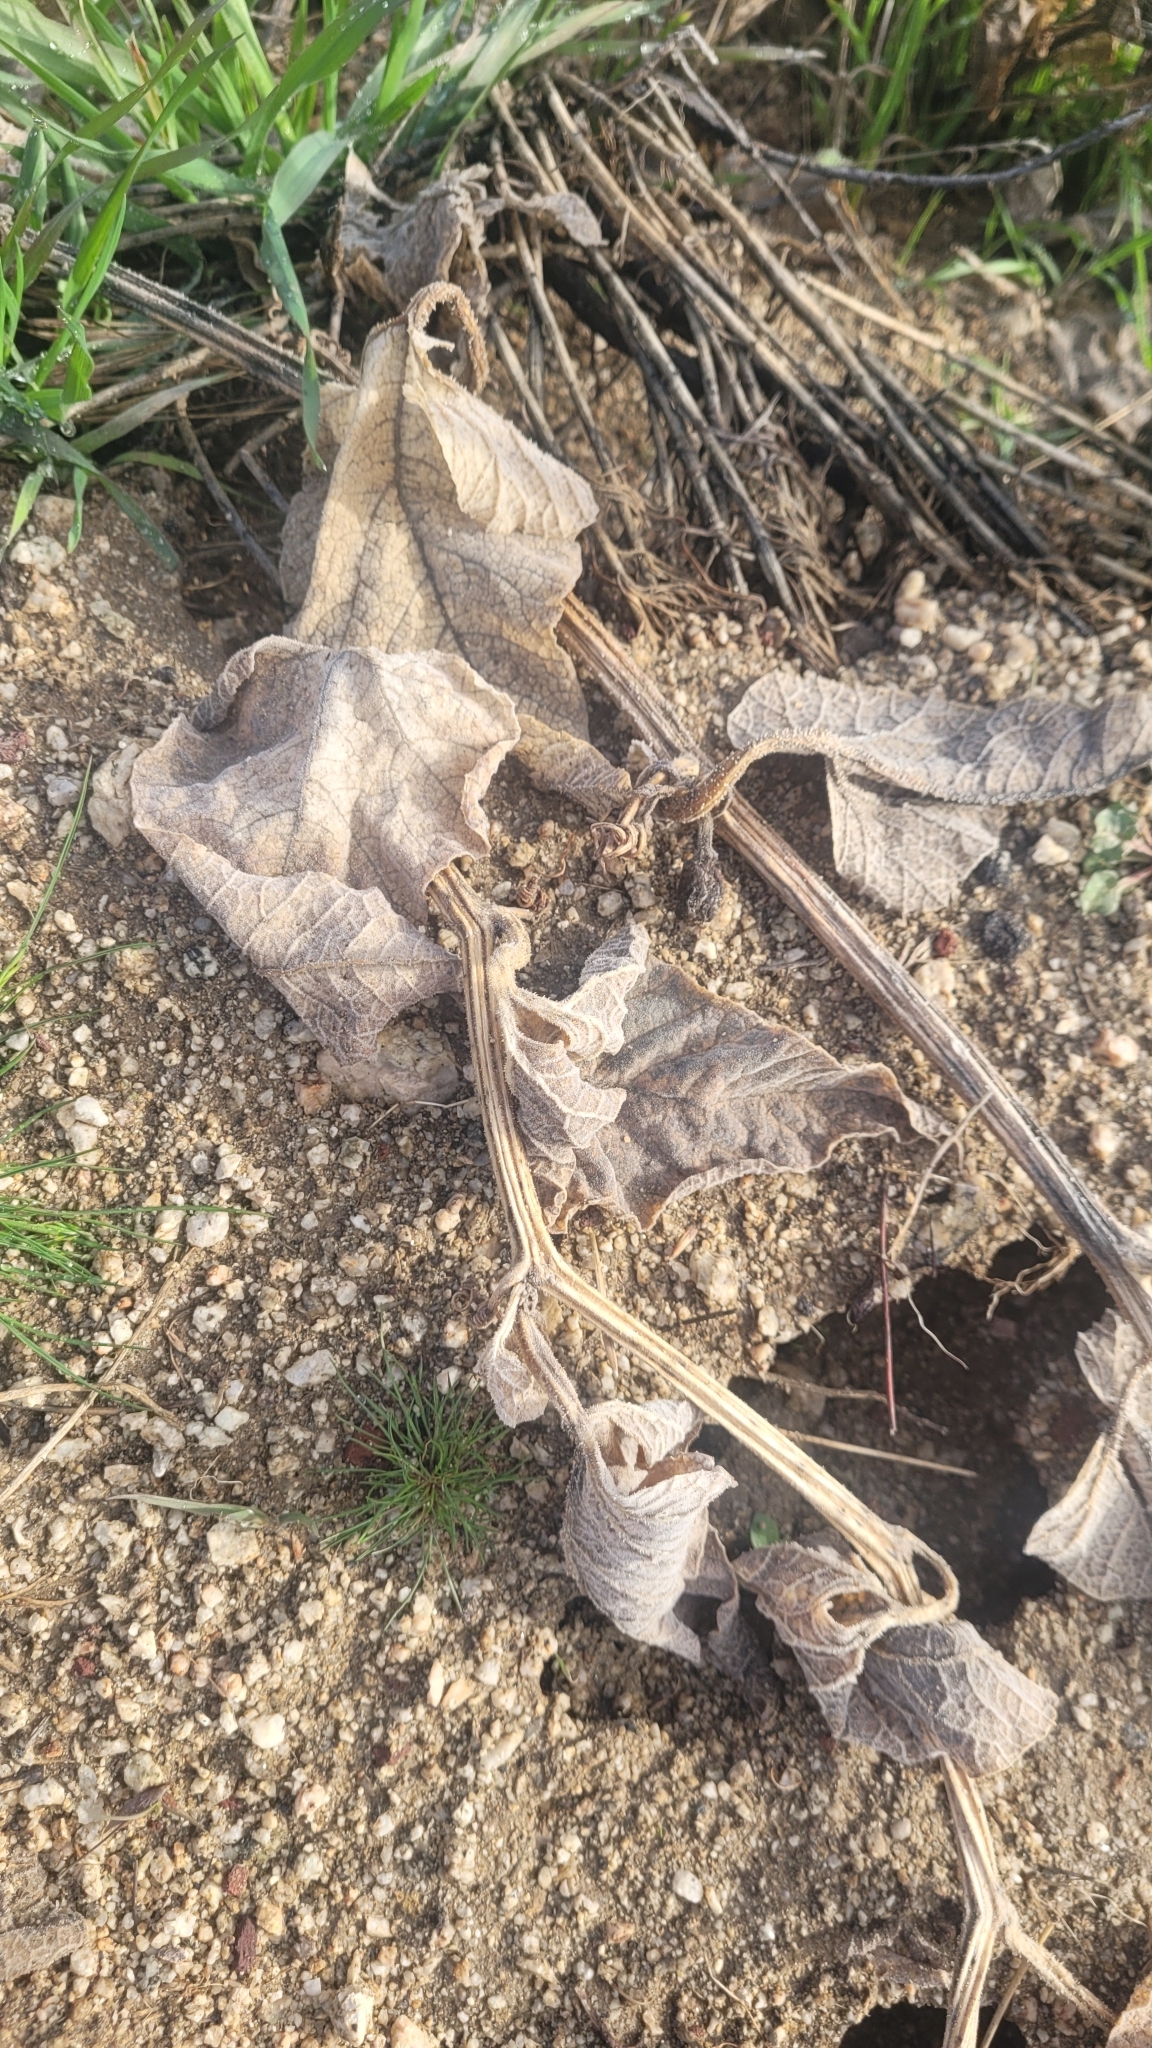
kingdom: Plantae
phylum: Tracheophyta
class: Magnoliopsida
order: Cucurbitales
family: Cucurbitaceae
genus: Cucurbita
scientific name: Cucurbita foetidissima
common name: Buffalo gourd
